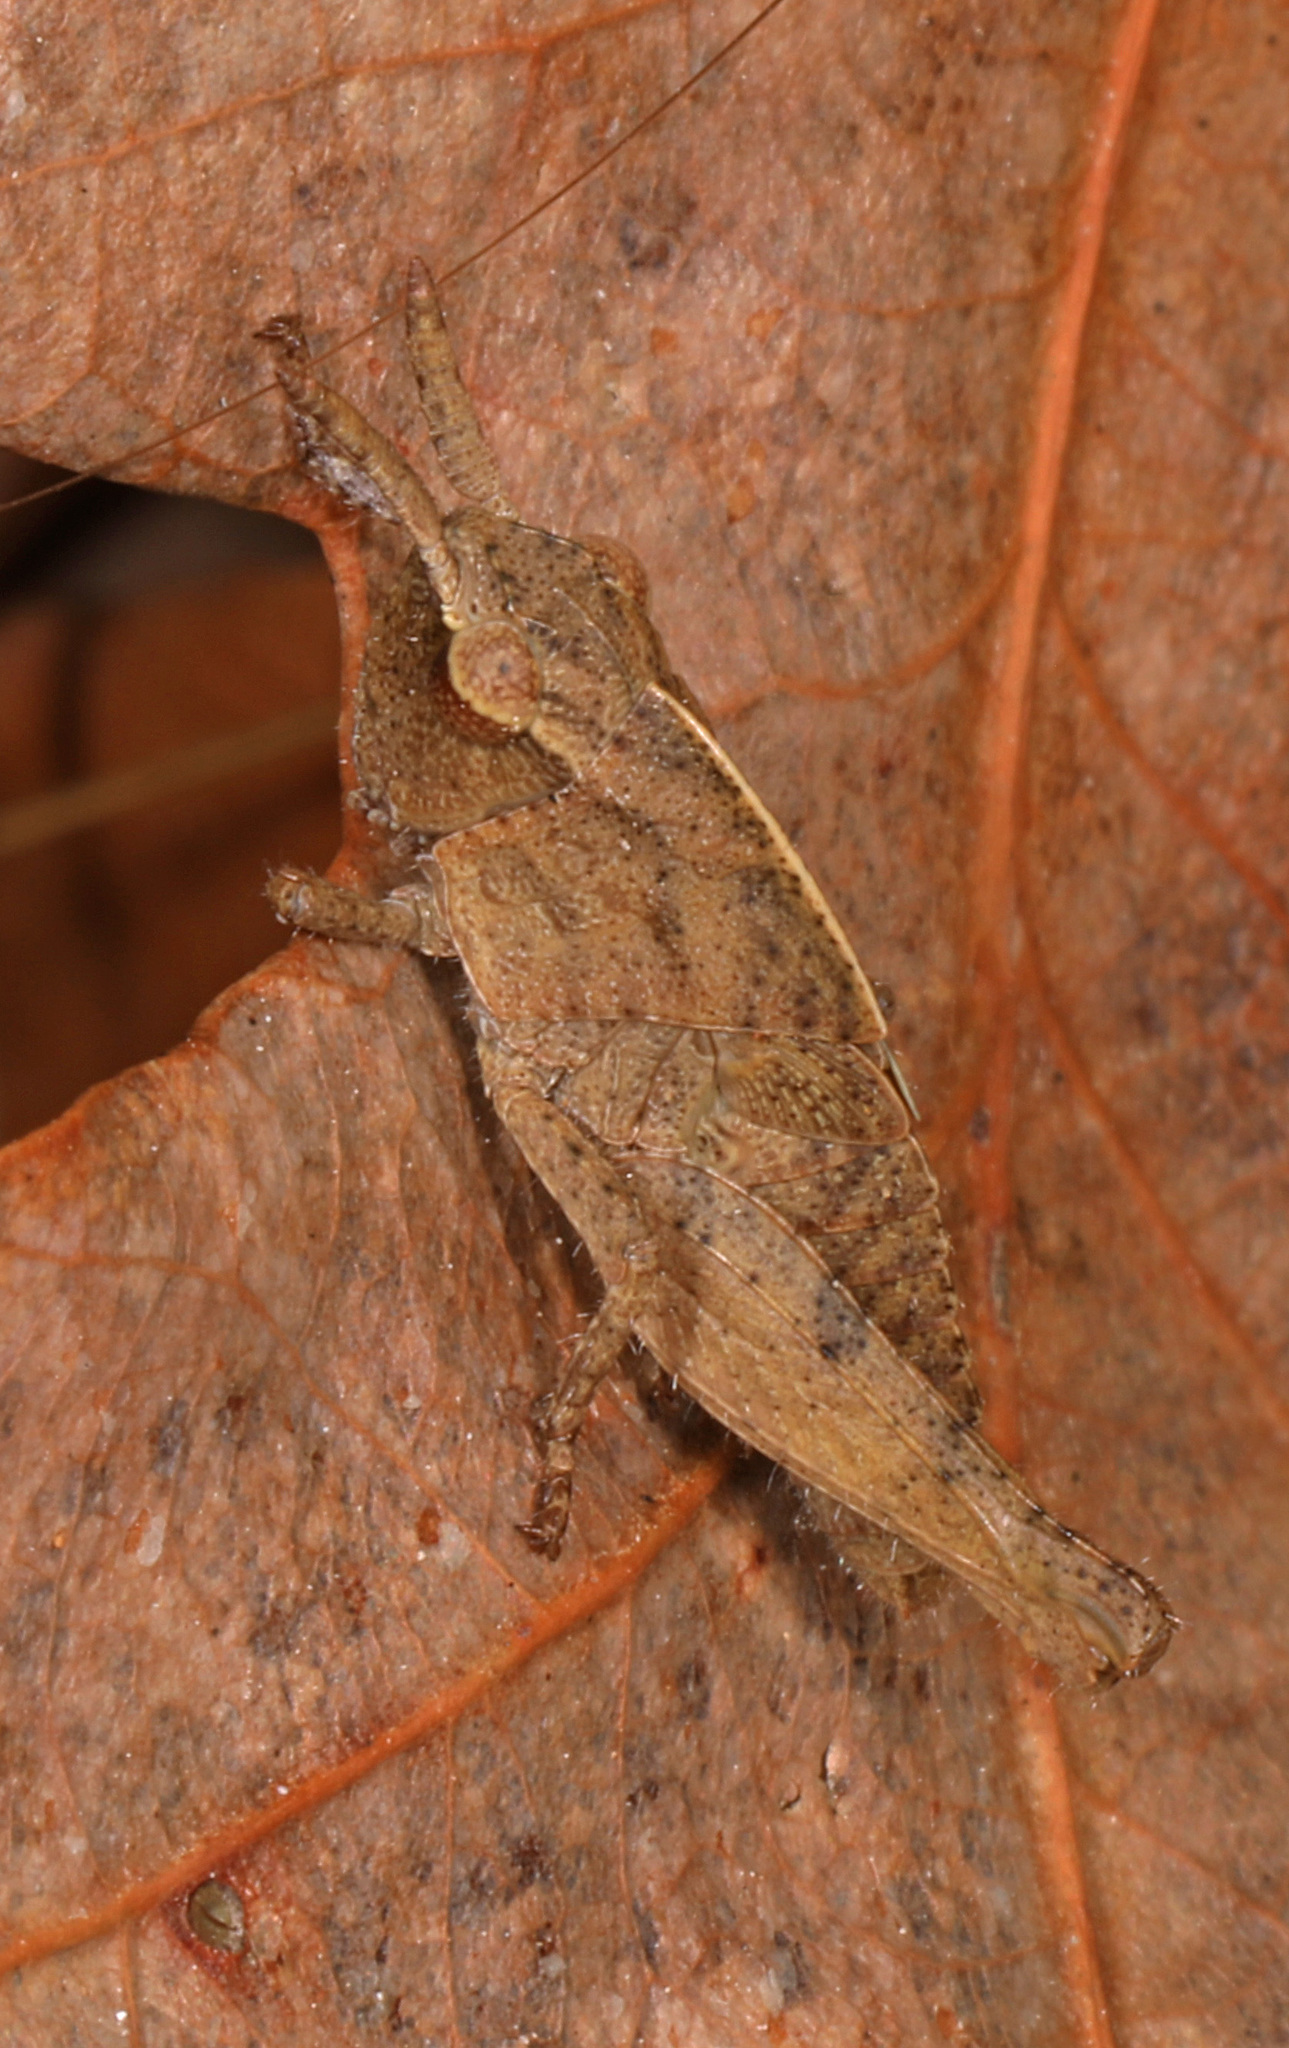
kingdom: Animalia
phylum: Arthropoda
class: Insecta
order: Orthoptera
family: Acrididae
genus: Chortophaga
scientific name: Chortophaga viridifasciata
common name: Green-striped grasshopper
